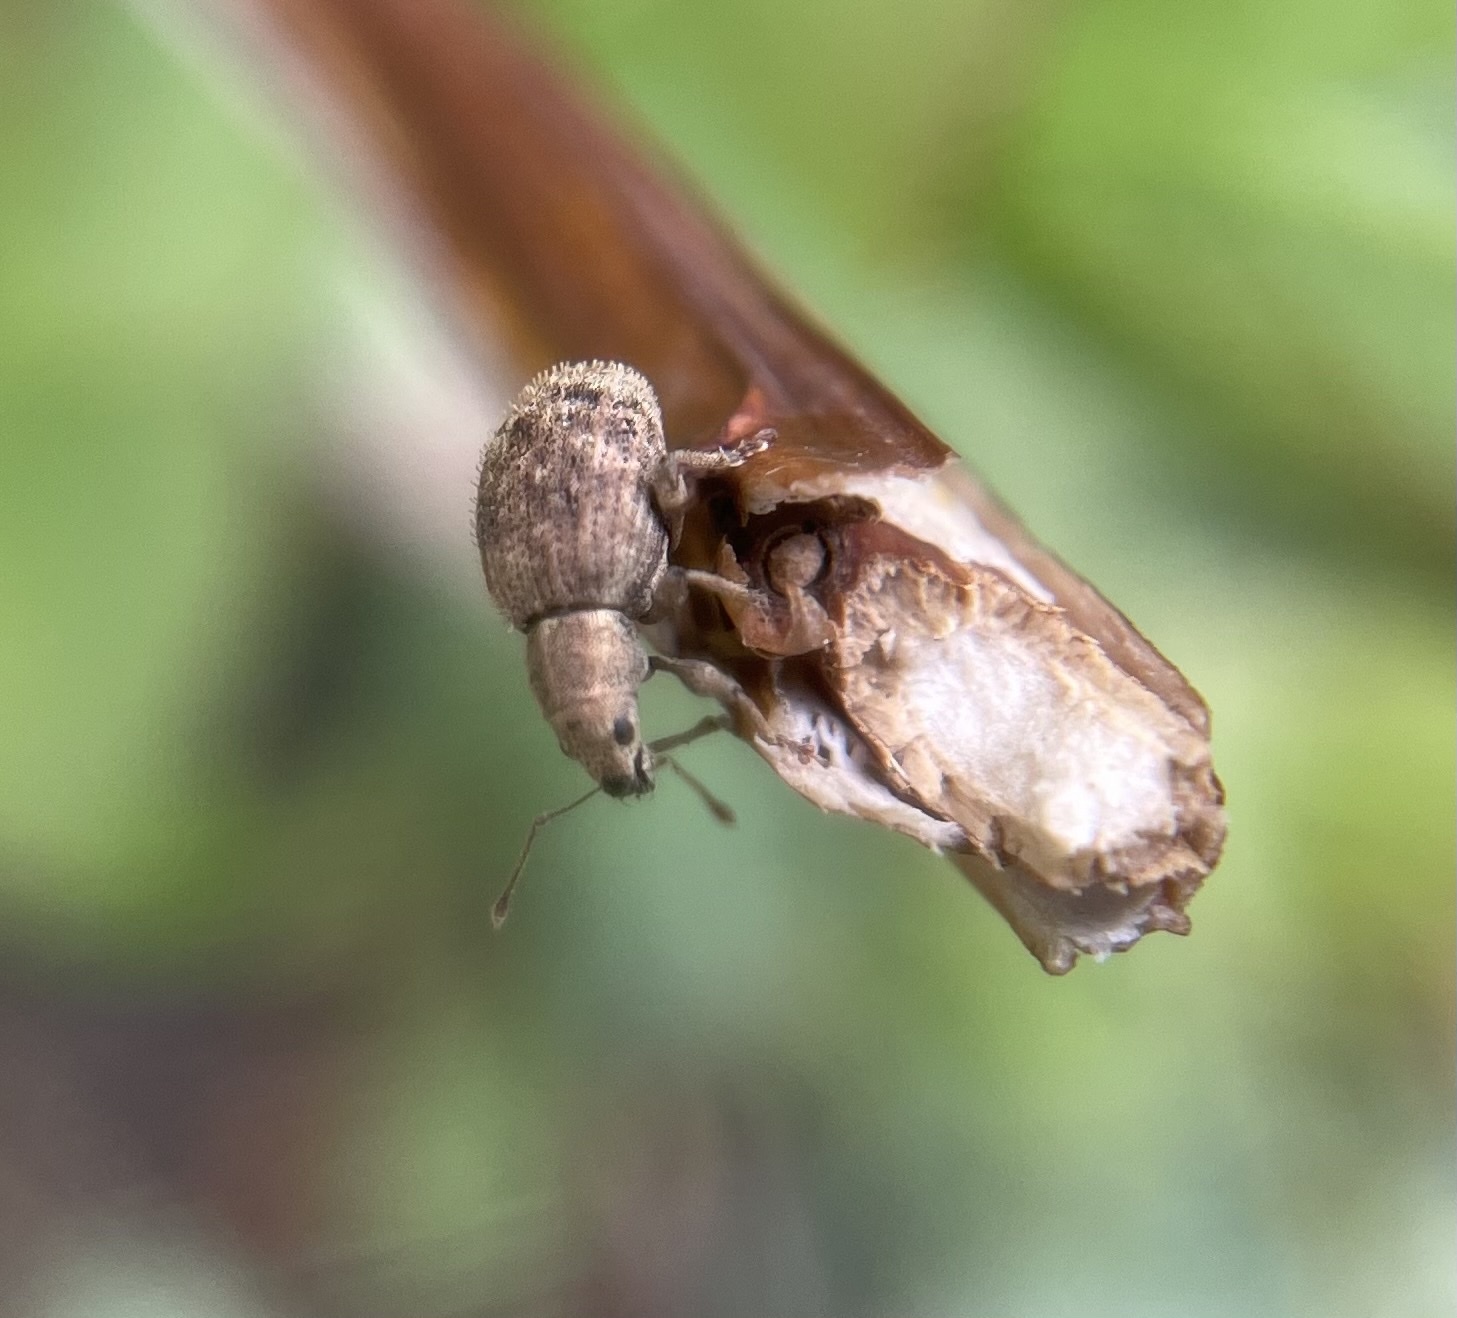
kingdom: Animalia
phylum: Arthropoda
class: Insecta
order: Coleoptera
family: Curculionidae
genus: Sciaphilus
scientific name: Sciaphilus asperatus
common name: Weevil
